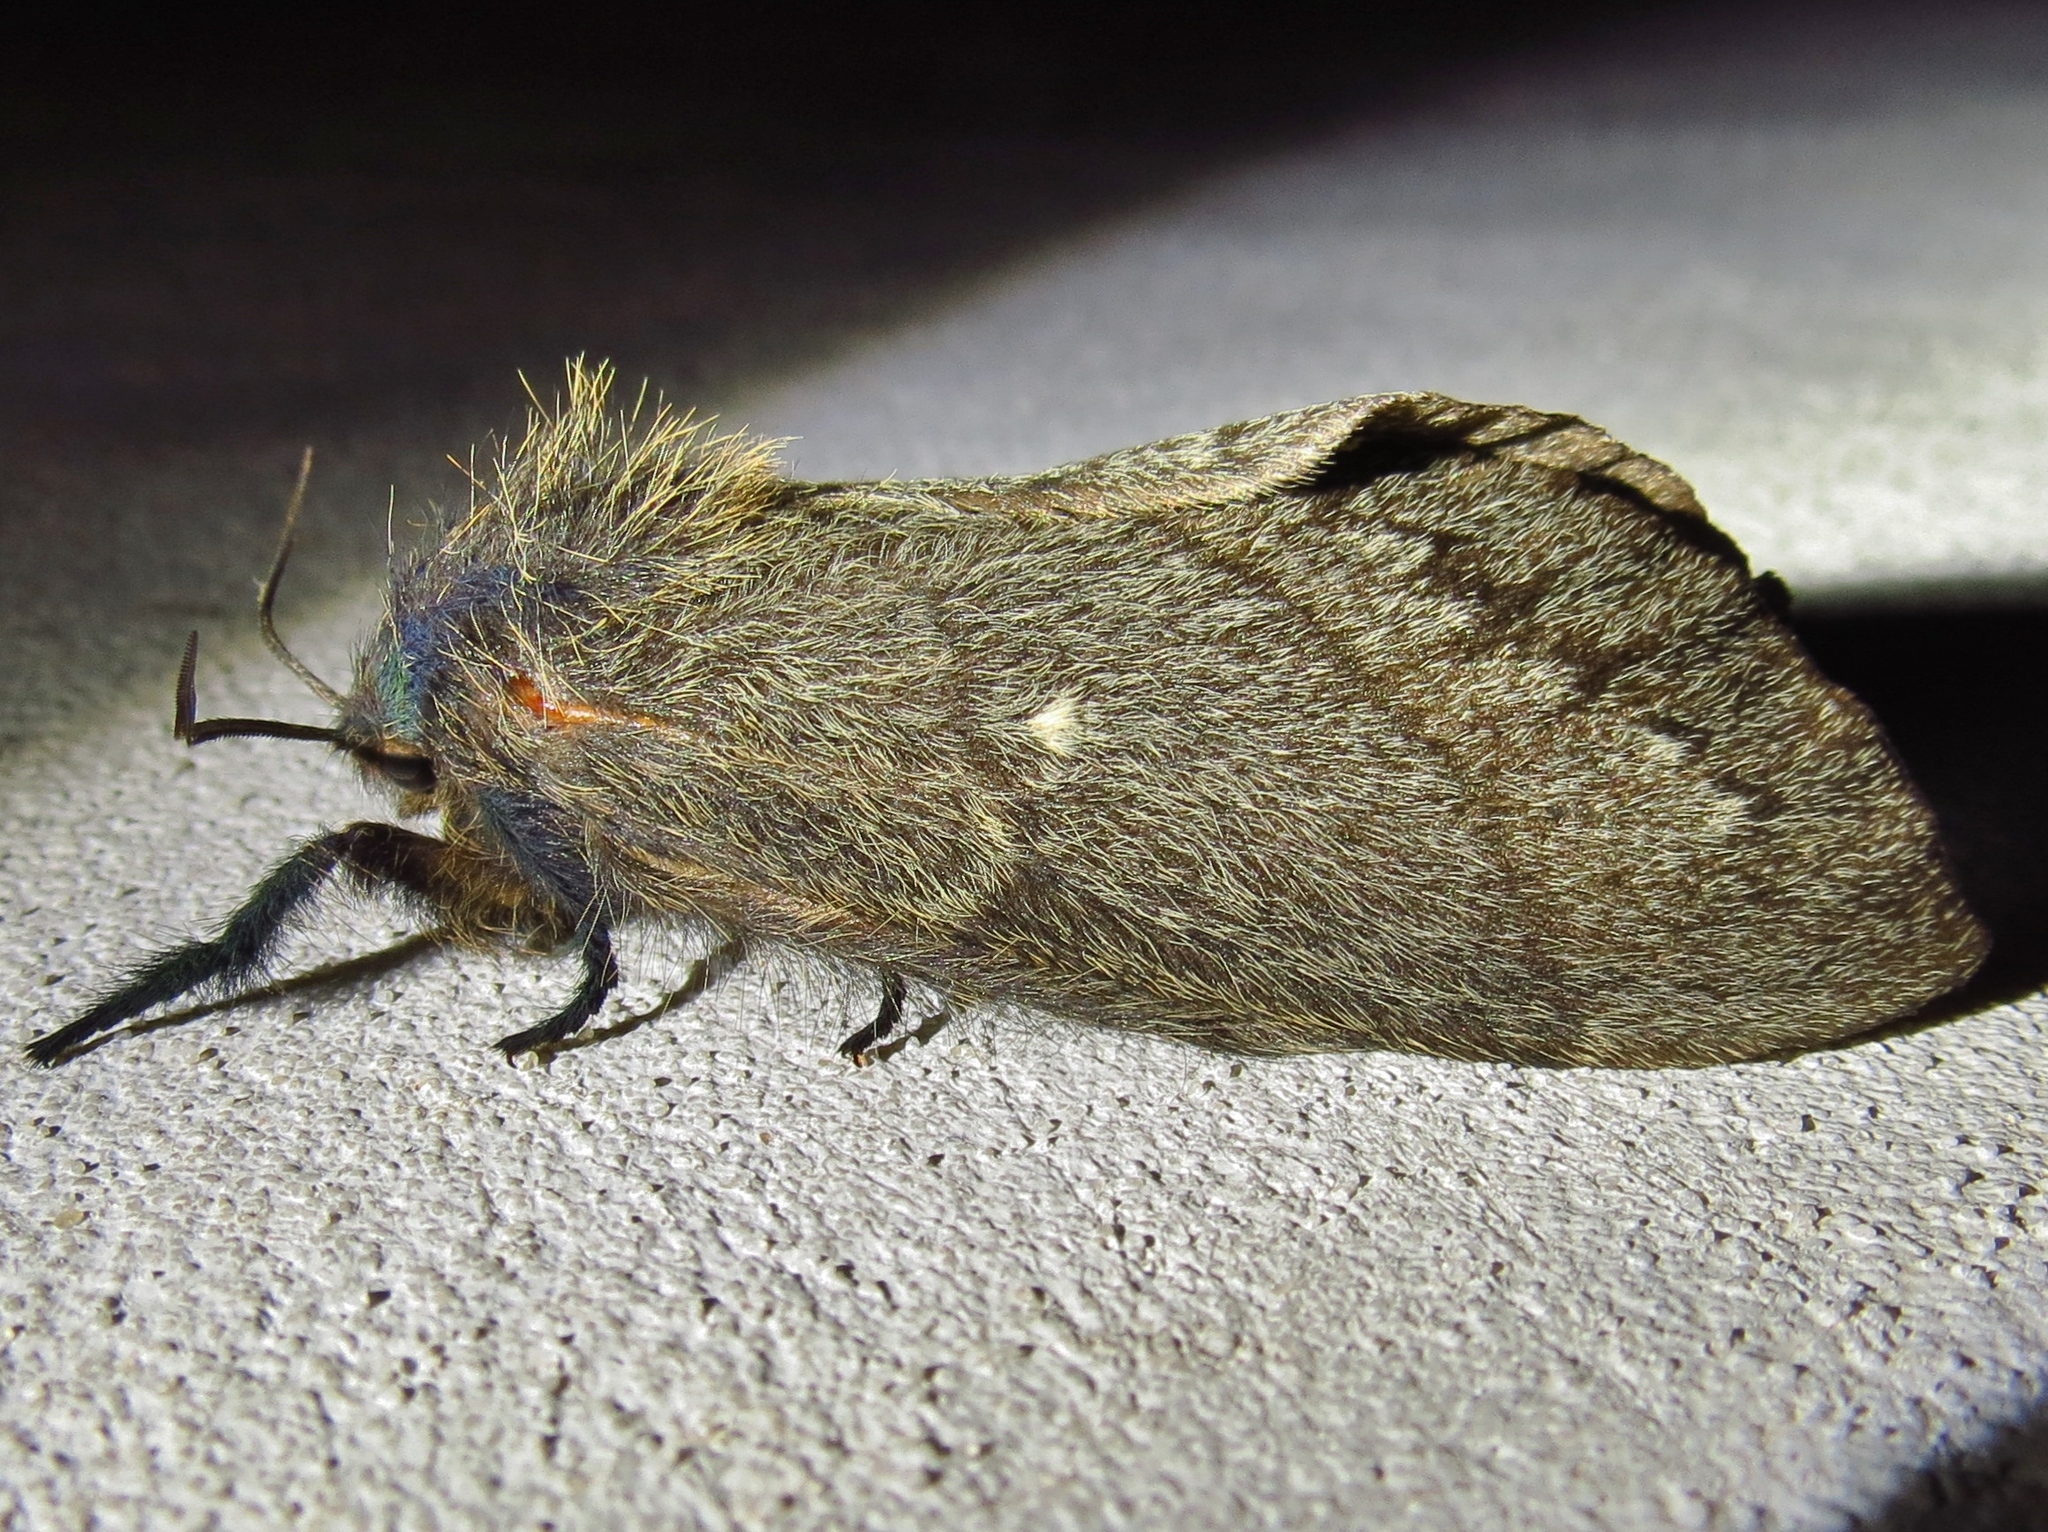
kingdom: Animalia
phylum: Arthropoda
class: Insecta
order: Lepidoptera
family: Lasiocampidae
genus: Gloveria
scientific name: Gloveria gargamelle
